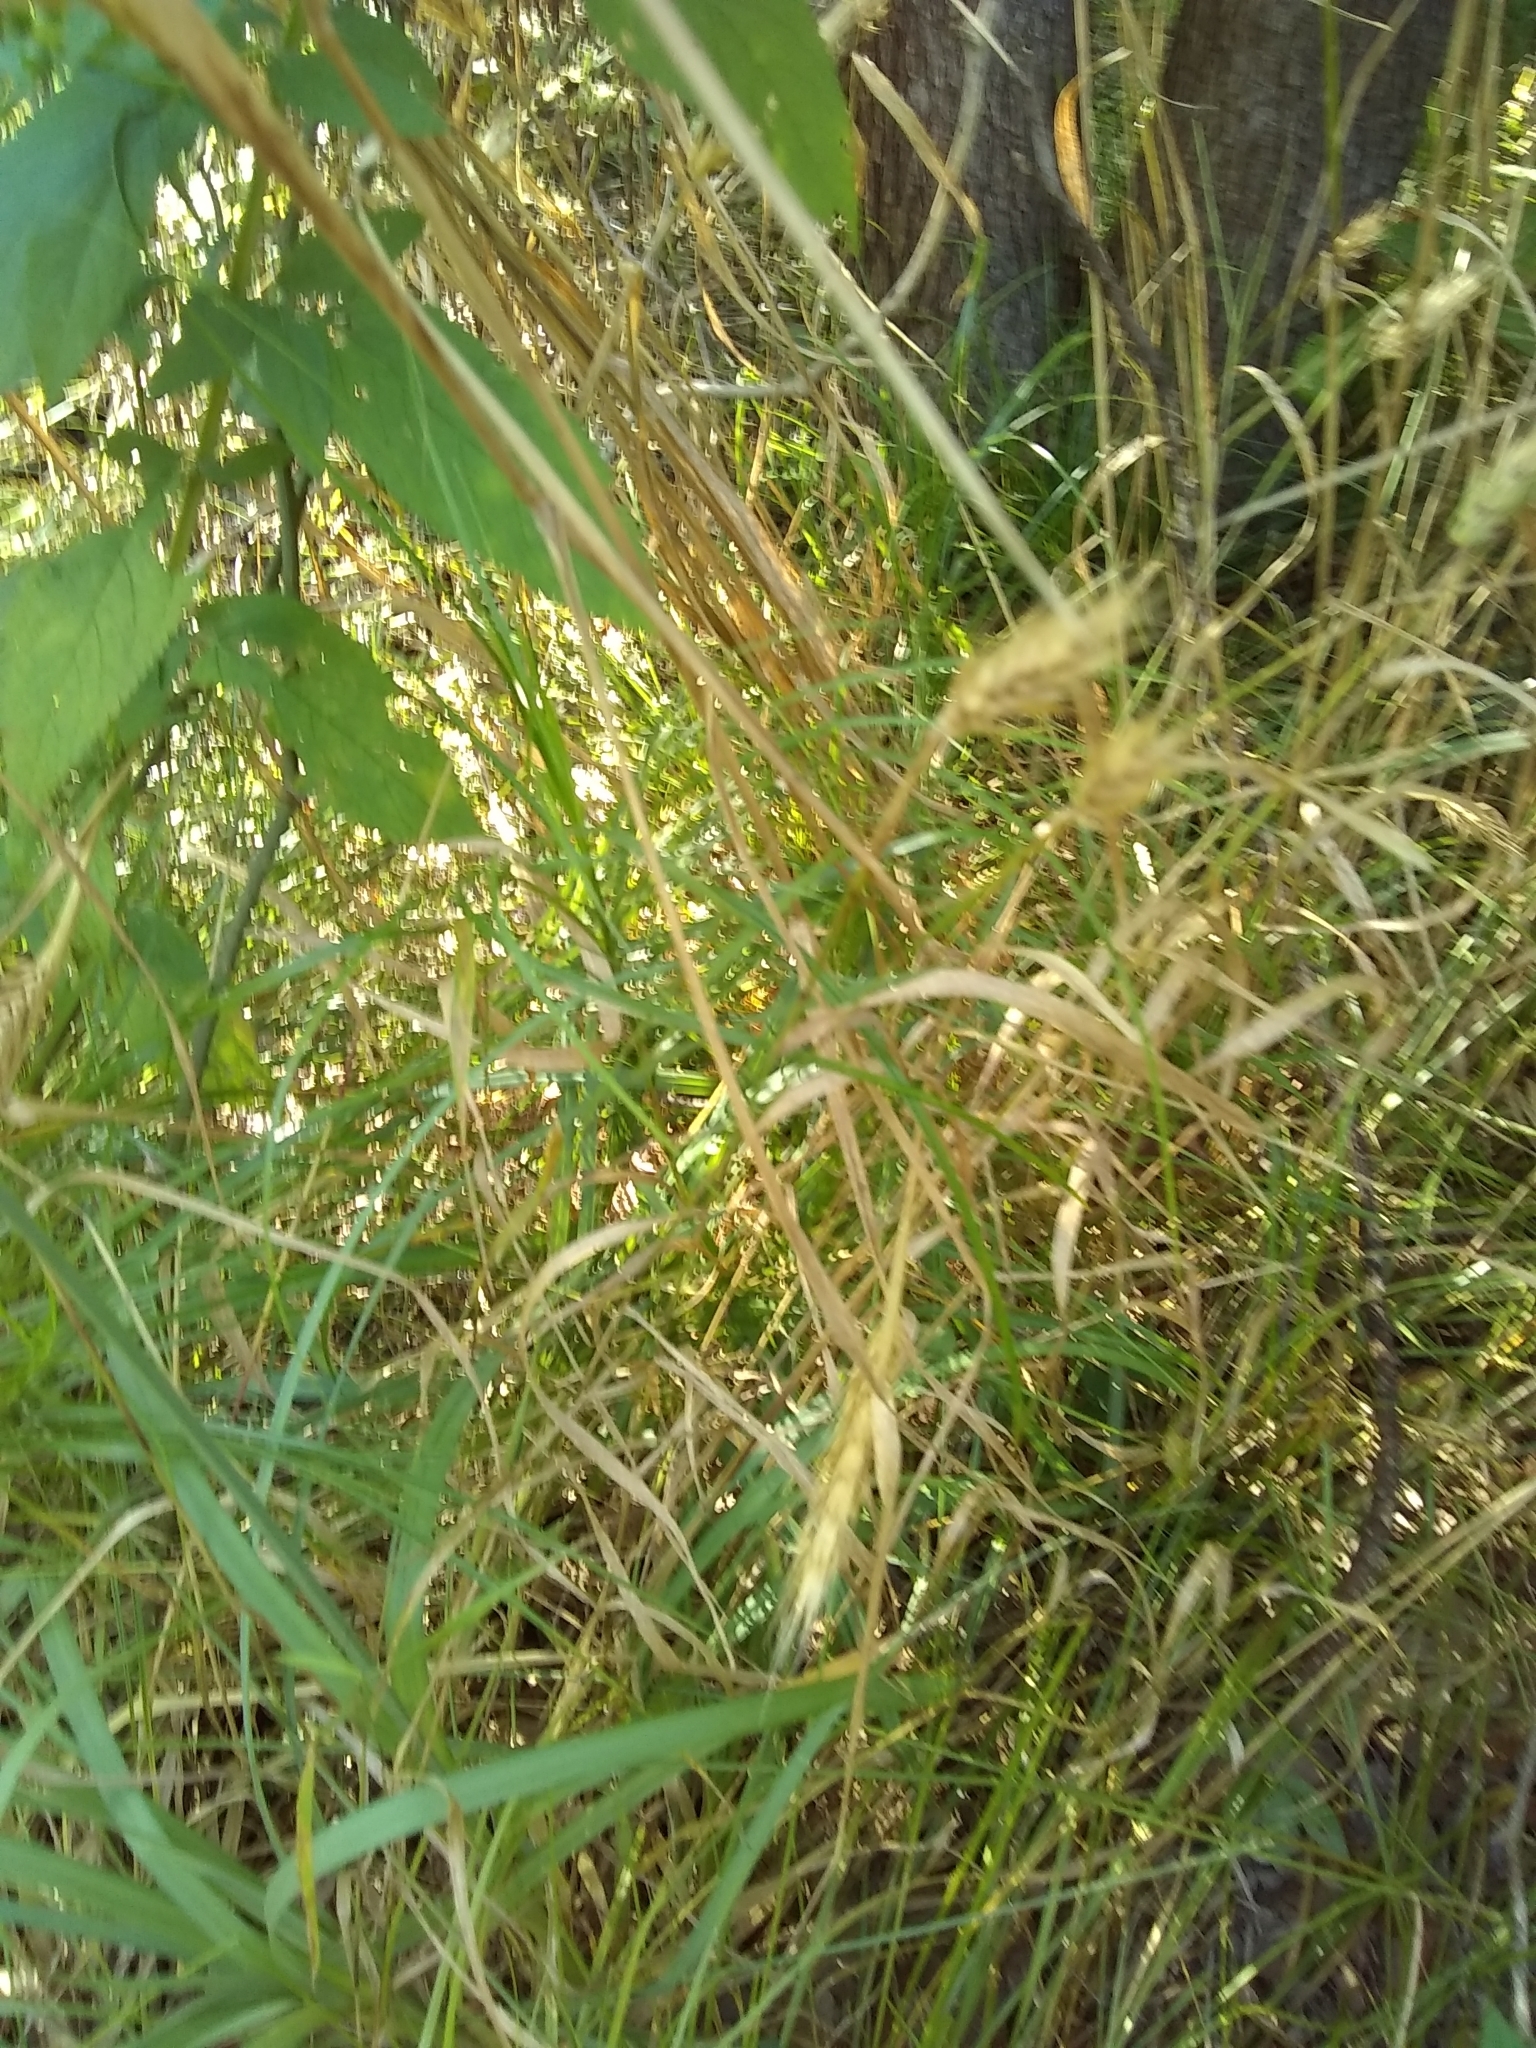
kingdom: Plantae
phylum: Tracheophyta
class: Liliopsida
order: Poales
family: Poaceae
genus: Elymus
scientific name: Elymus virginicus
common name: Common eastern wildrye
